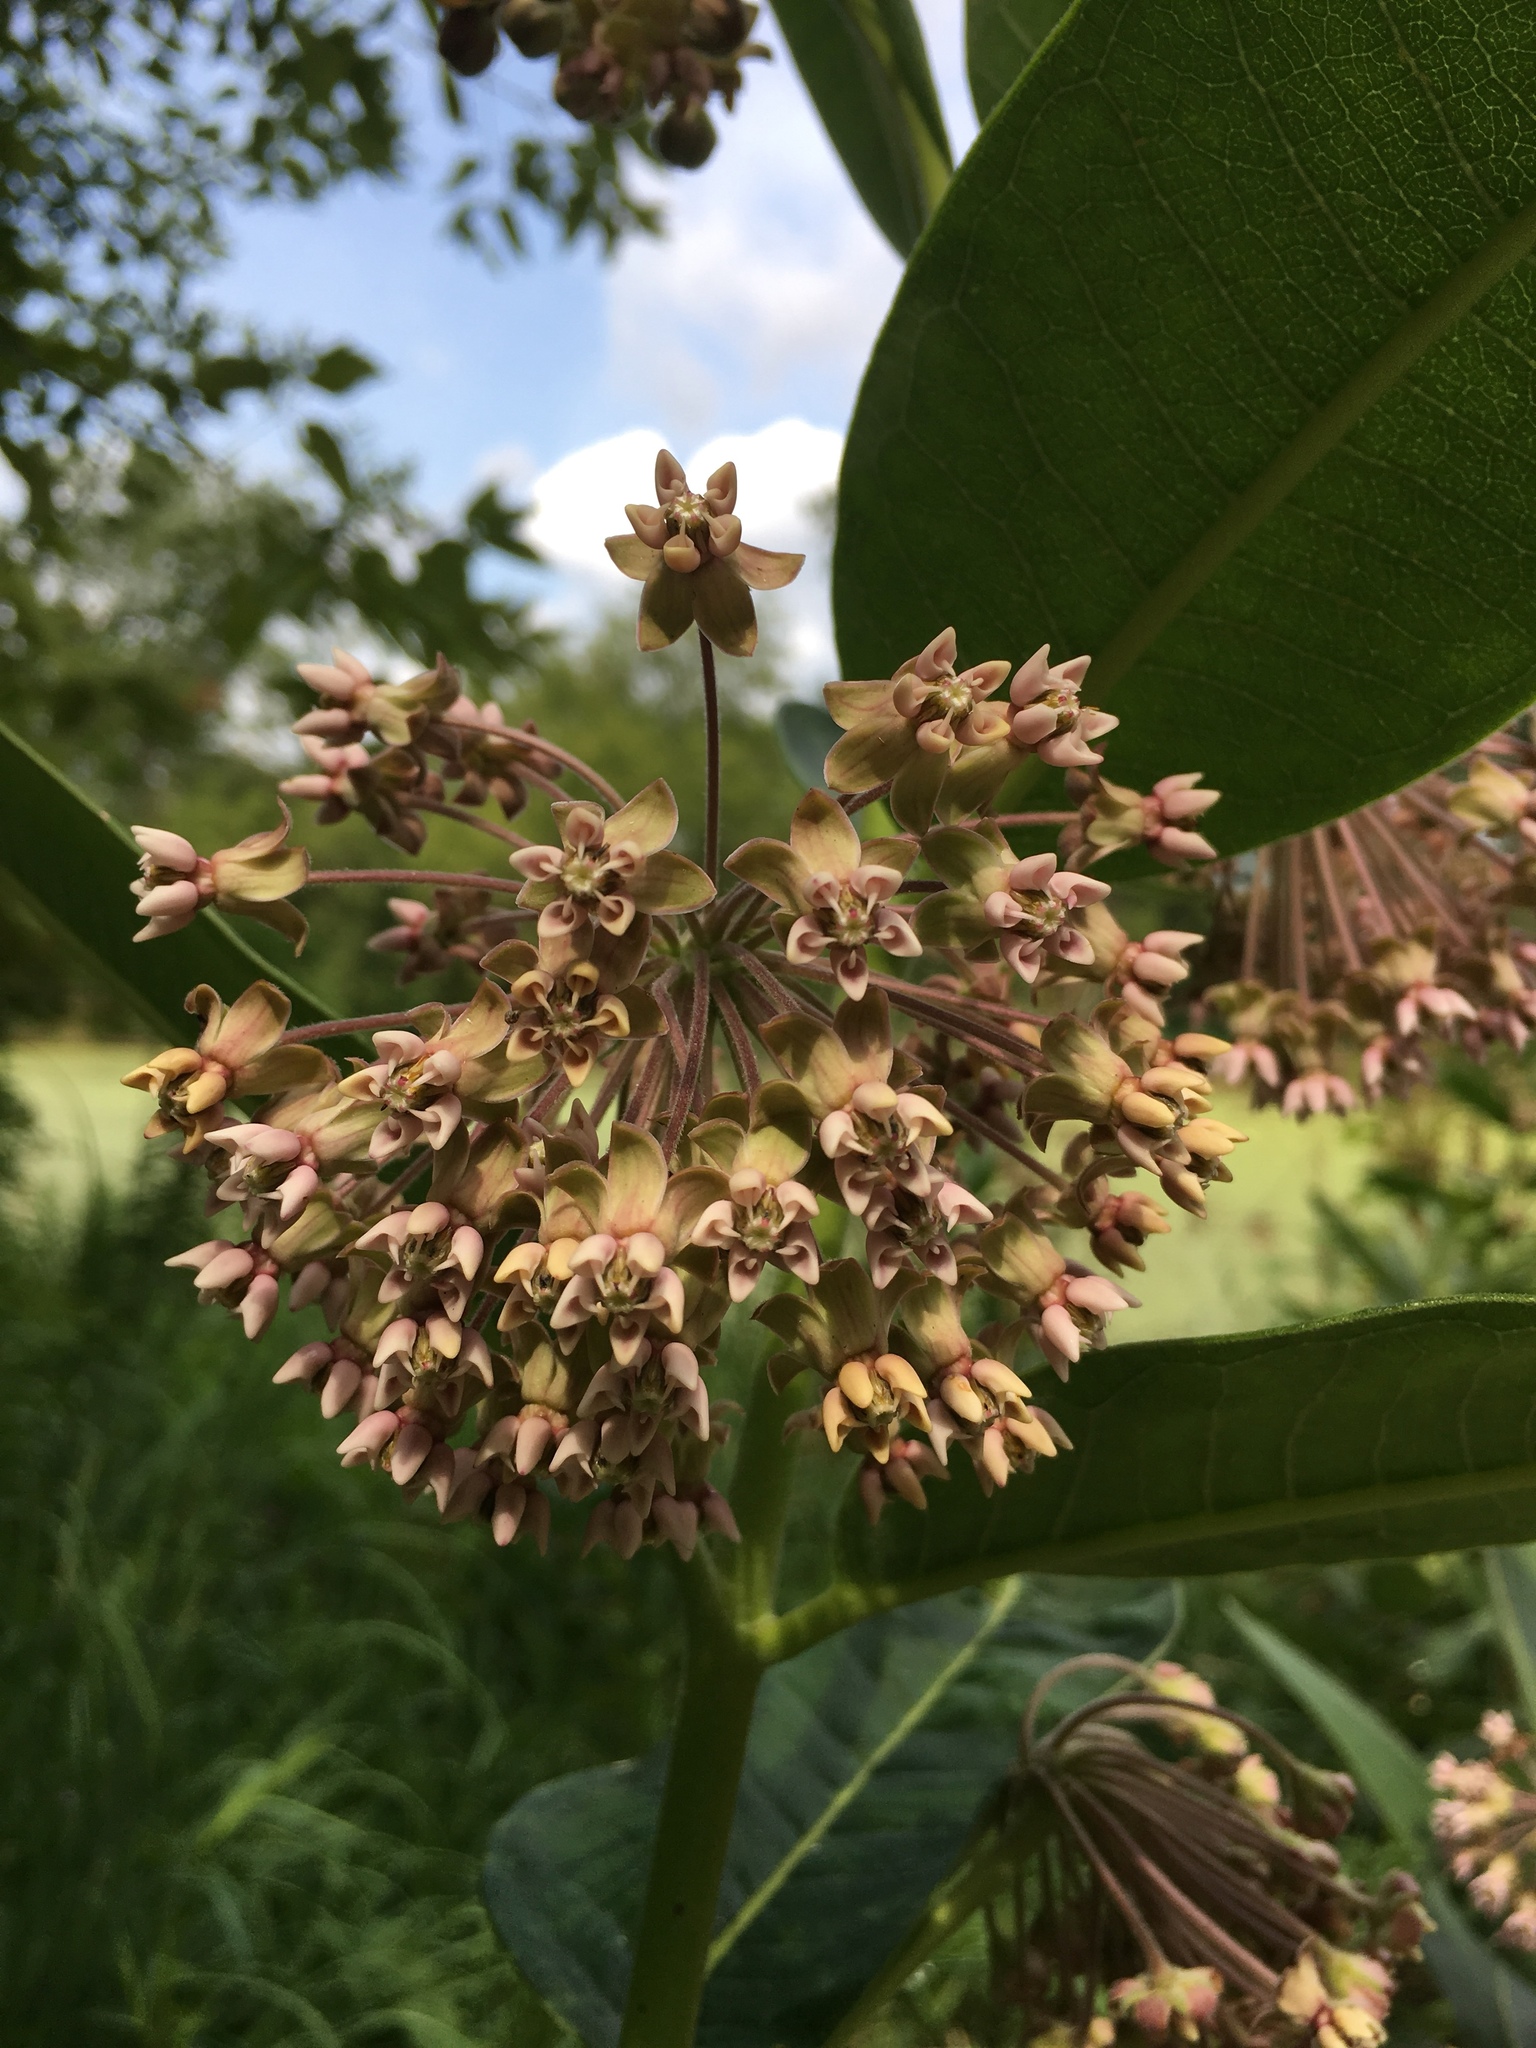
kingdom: Plantae
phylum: Tracheophyta
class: Magnoliopsida
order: Gentianales
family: Apocynaceae
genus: Asclepias
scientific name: Asclepias syriaca
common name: Common milkweed
